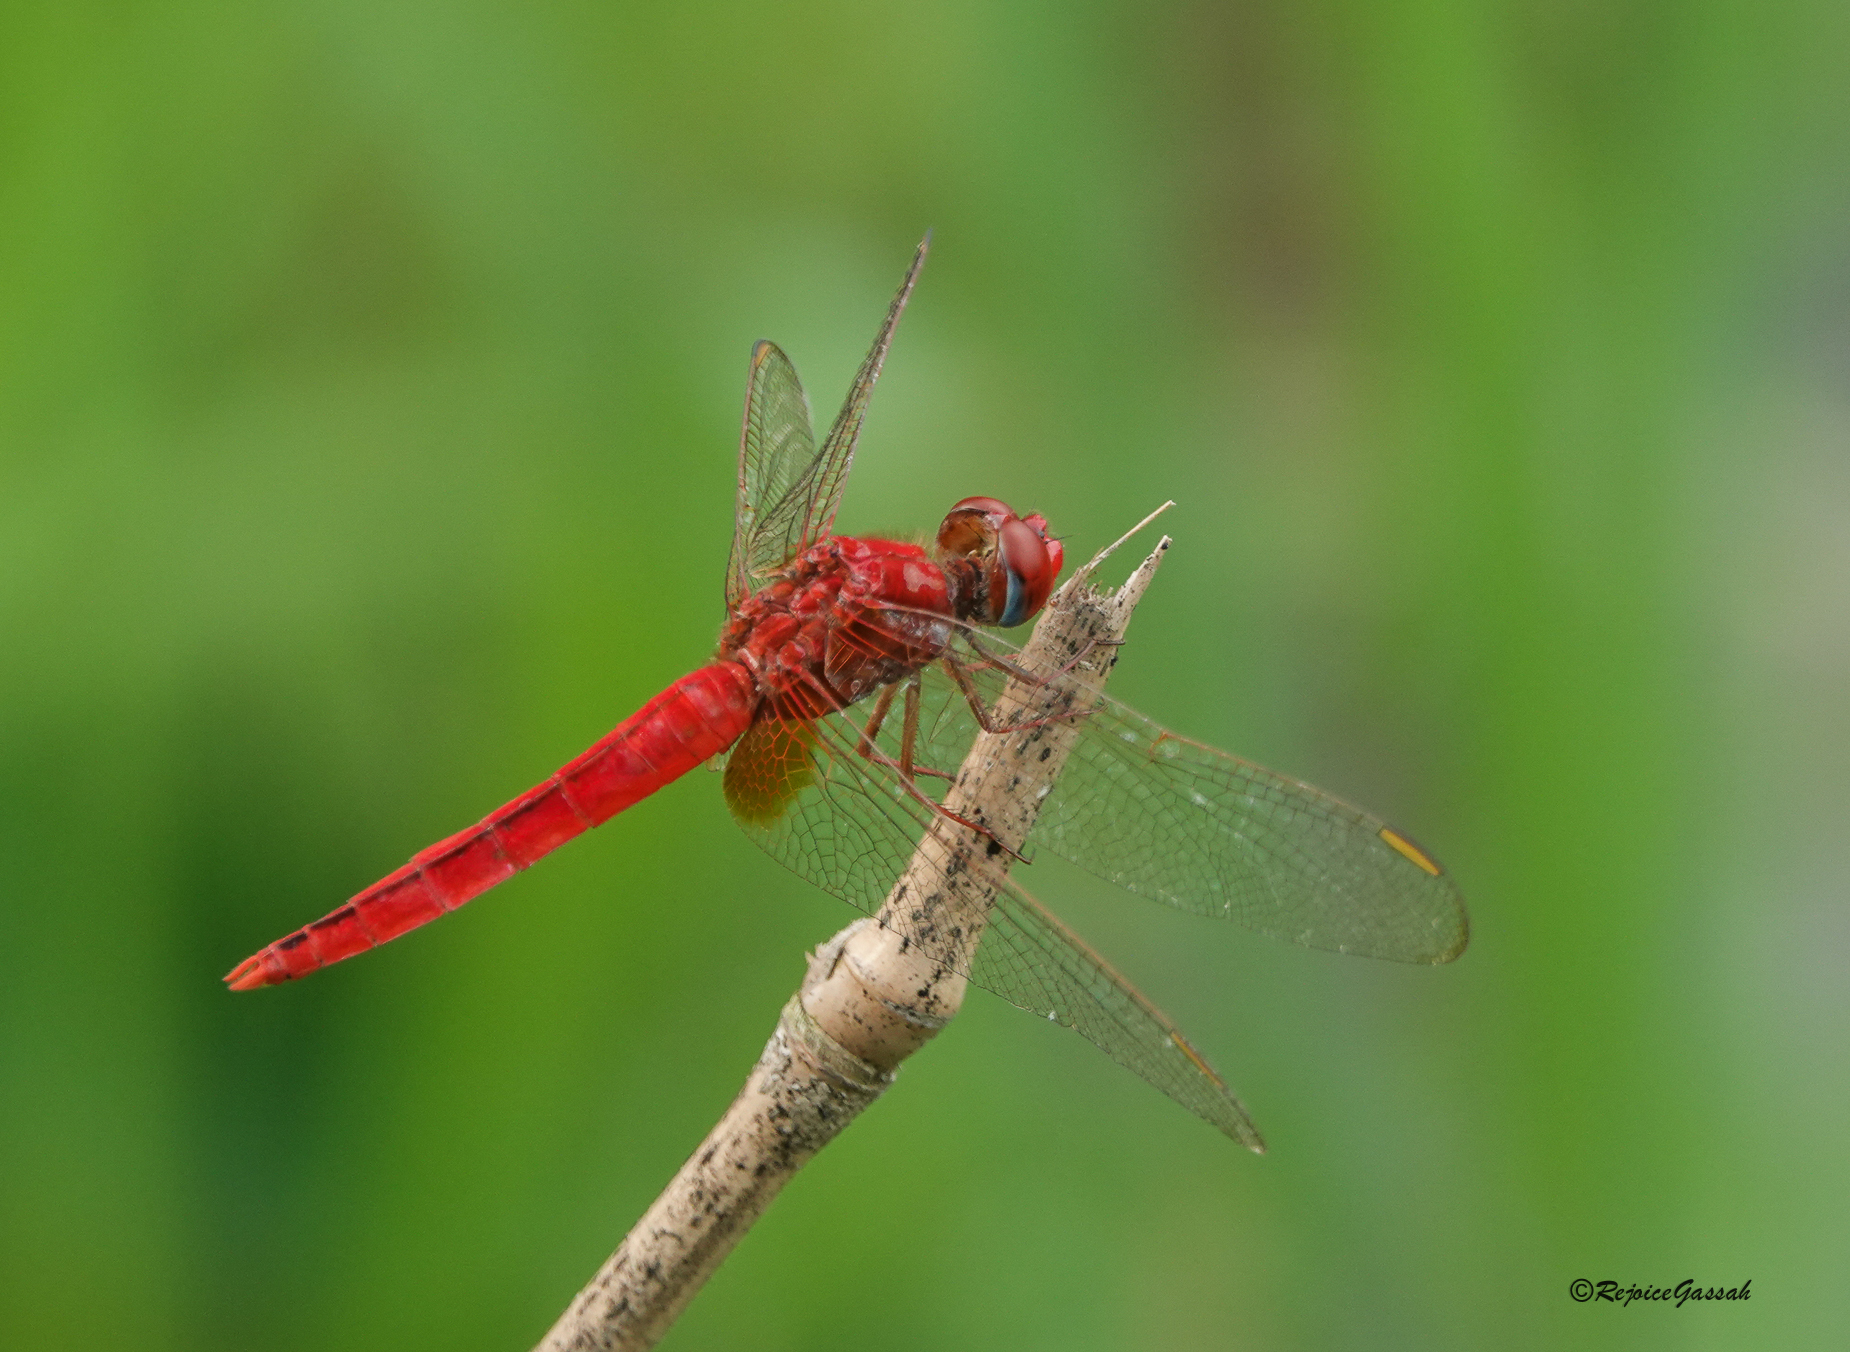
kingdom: Animalia
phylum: Arthropoda
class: Insecta
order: Odonata
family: Libellulidae
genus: Crocothemis
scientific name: Crocothemis servilia
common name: Scarlet skimmer
